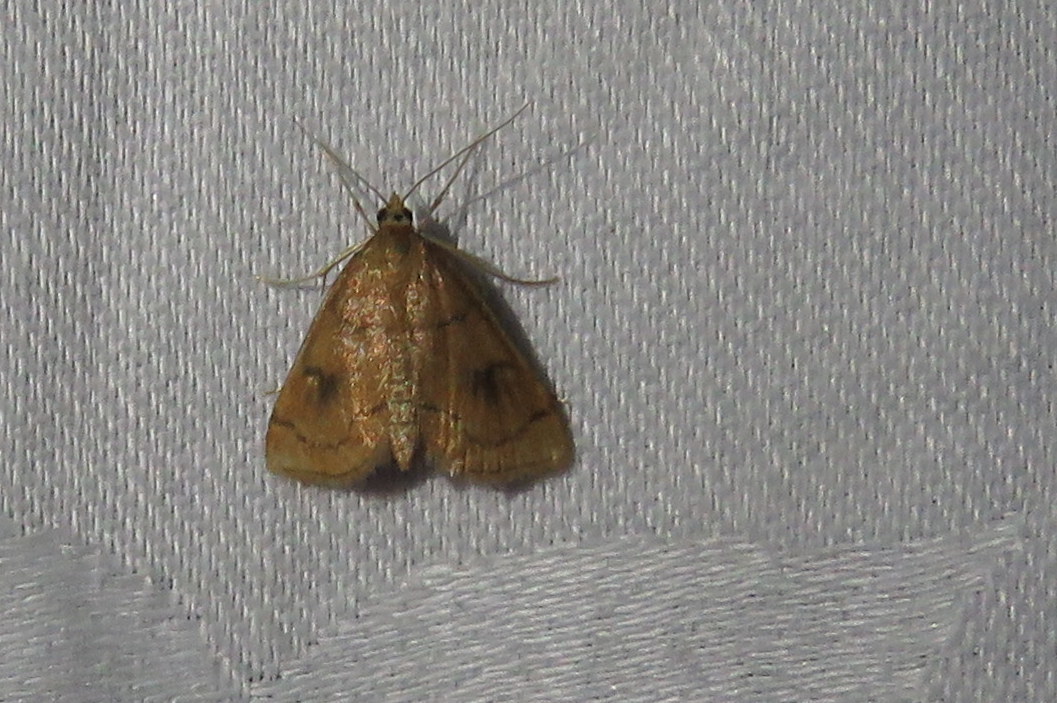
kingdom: Animalia
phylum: Arthropoda
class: Insecta
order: Lepidoptera
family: Crambidae
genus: Fumibotys
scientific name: Fumibotys fumalis
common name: Mint root borer moth
